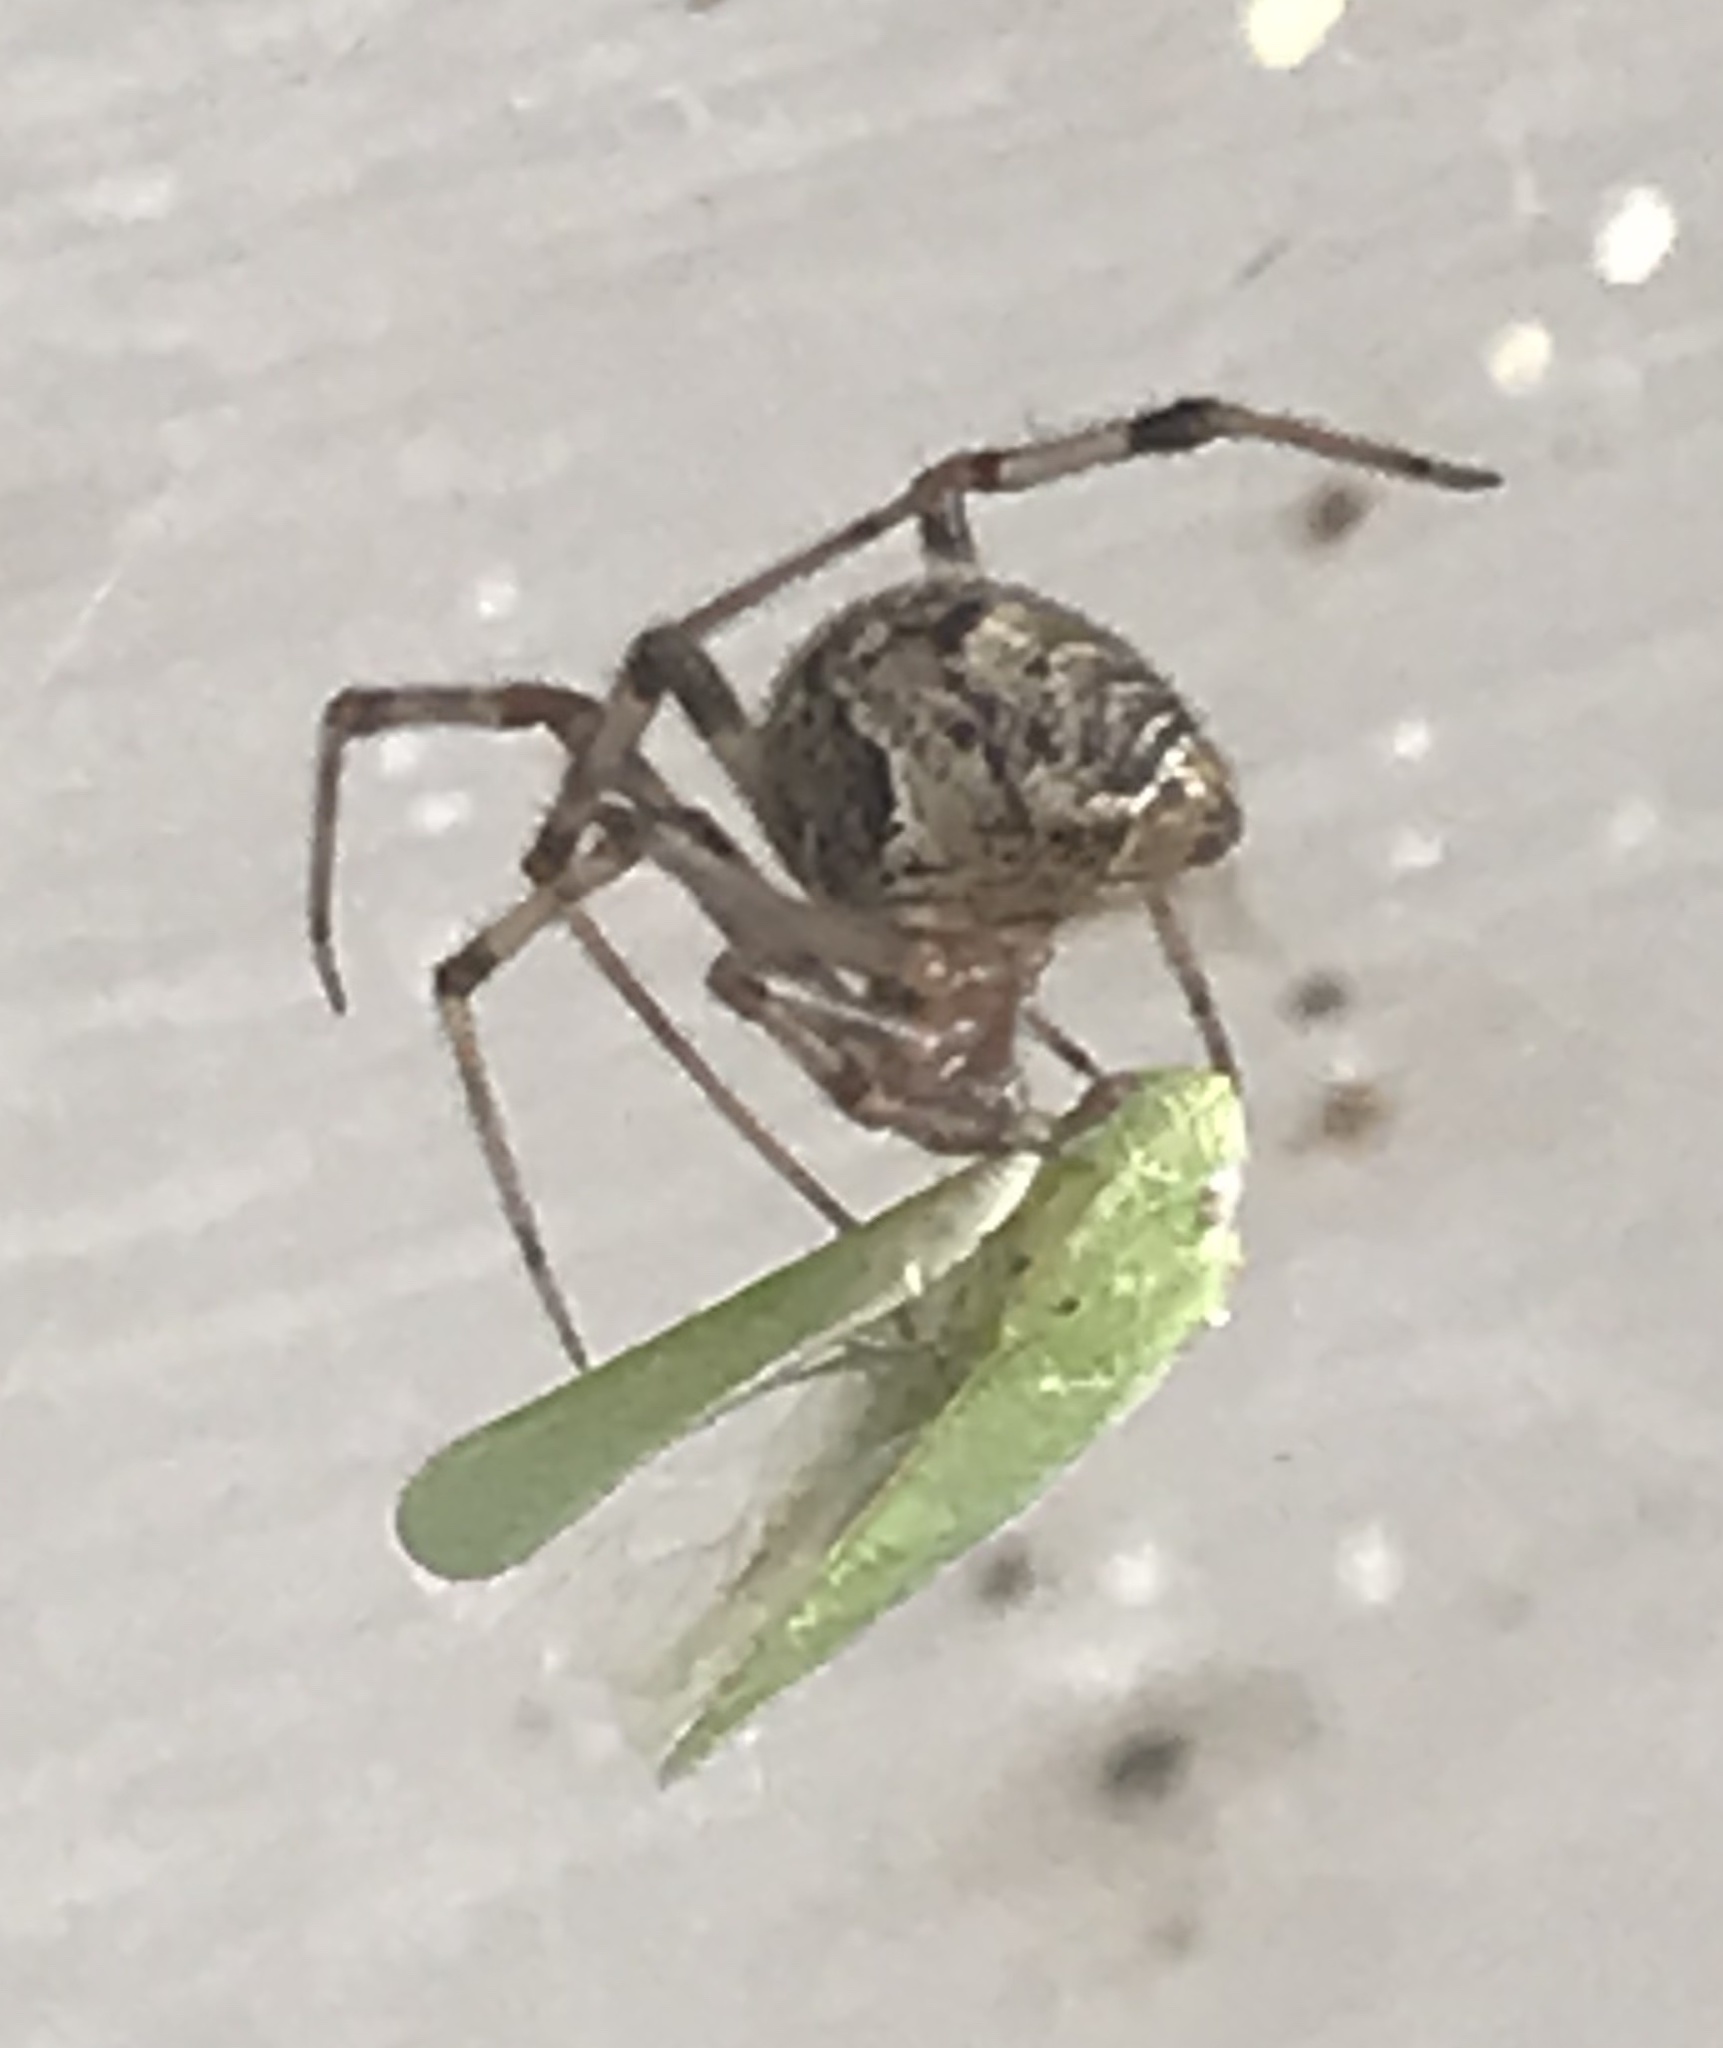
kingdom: Animalia
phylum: Arthropoda
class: Arachnida
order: Araneae
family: Theridiidae
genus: Parasteatoda
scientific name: Parasteatoda tepidariorum
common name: Common house spider
